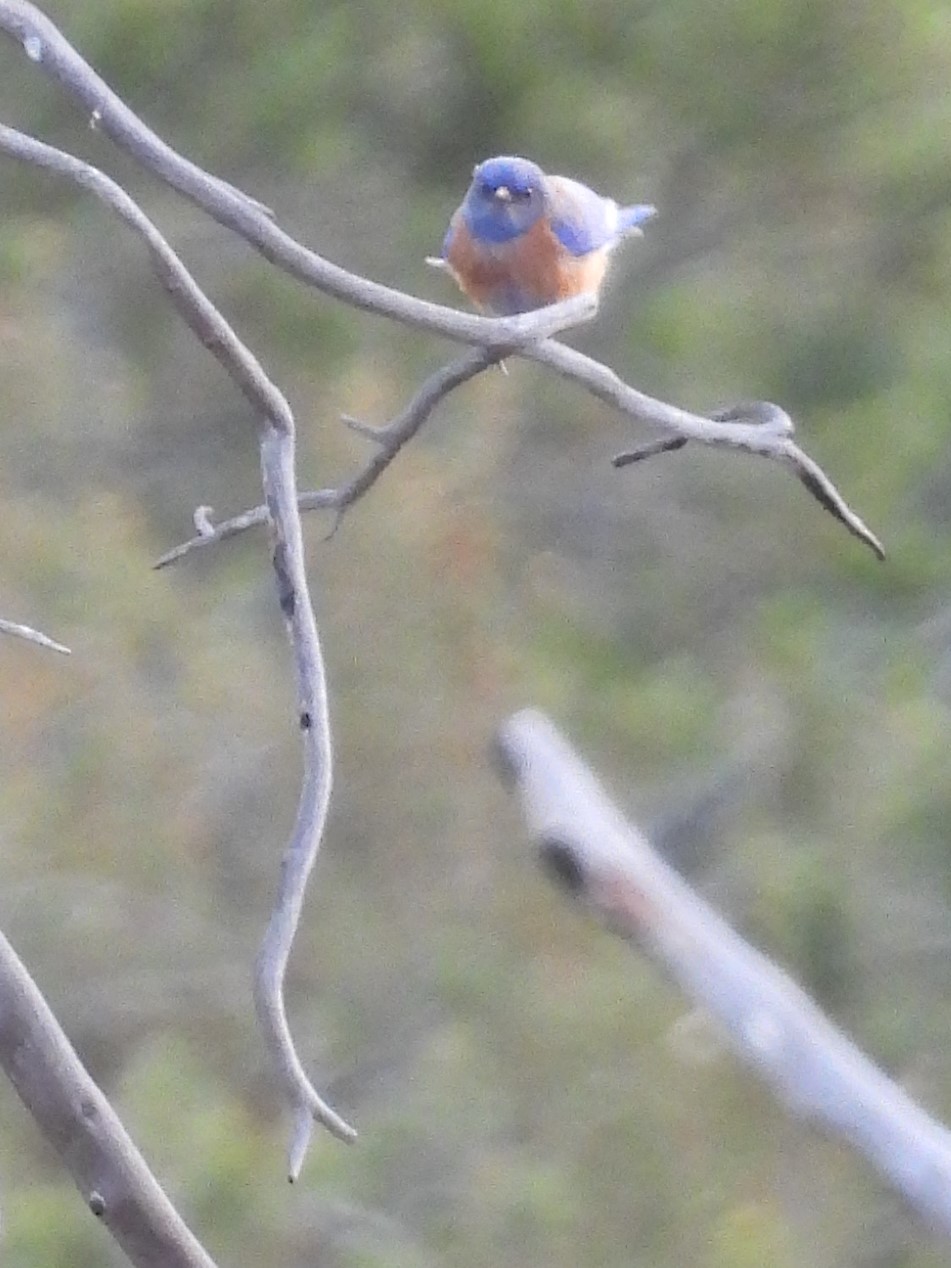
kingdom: Animalia
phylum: Chordata
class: Aves
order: Passeriformes
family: Turdidae
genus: Sialia
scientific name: Sialia mexicana
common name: Western bluebird
